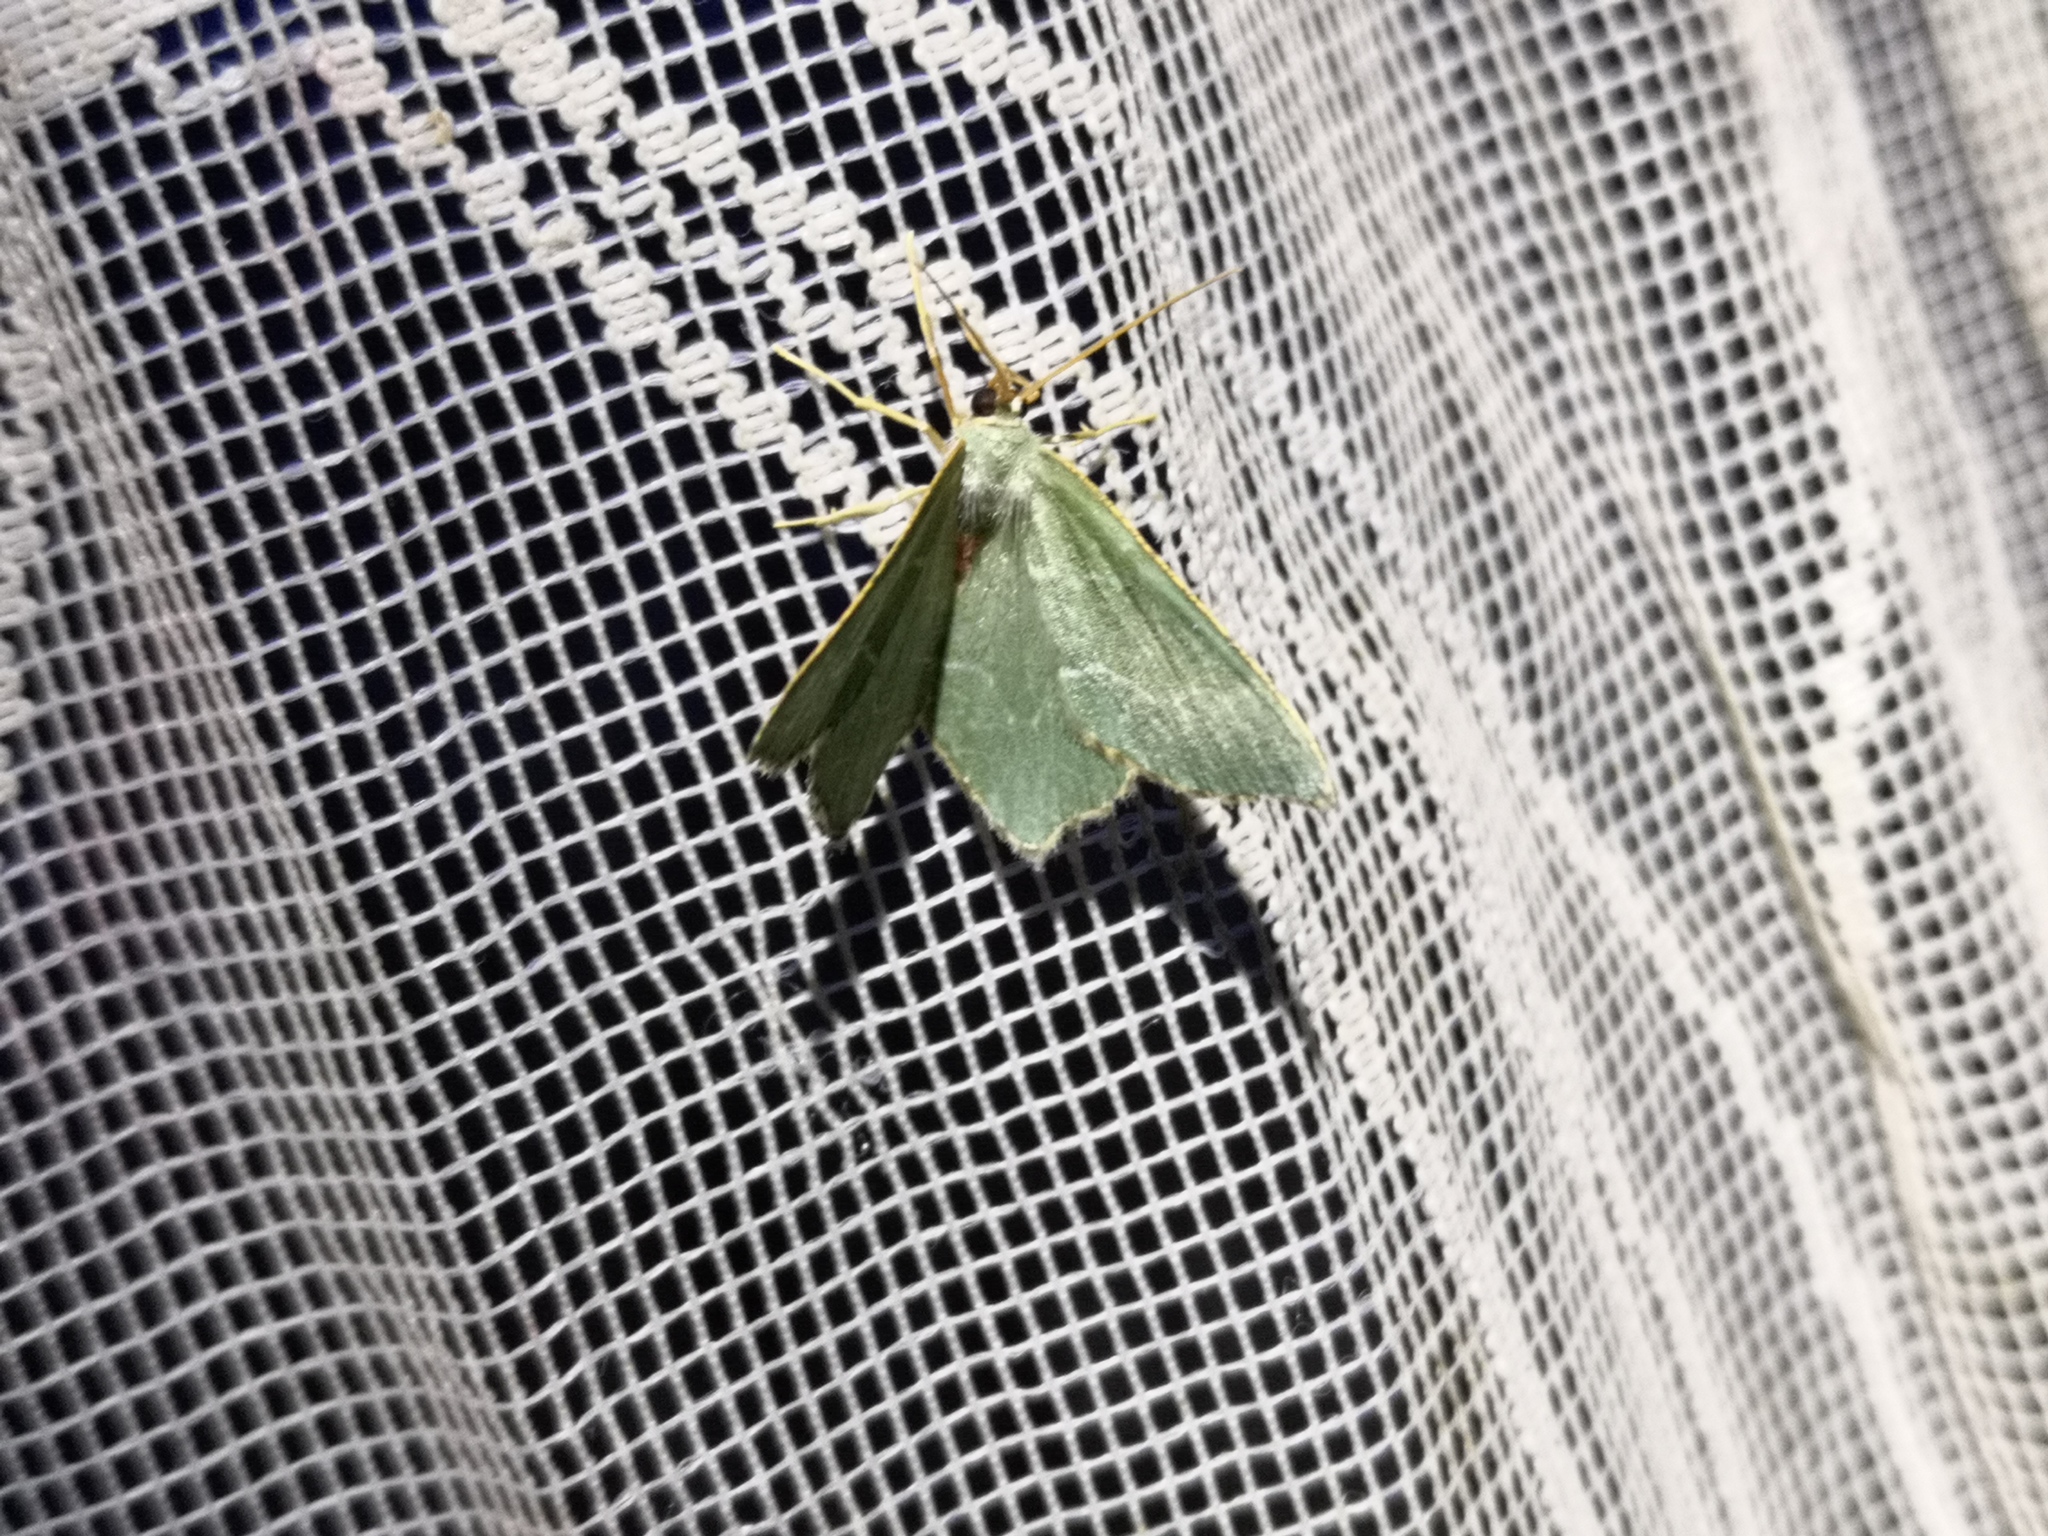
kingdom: Animalia
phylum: Arthropoda
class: Insecta
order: Lepidoptera
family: Geometridae
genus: Hemithea
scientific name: Hemithea aestivaria
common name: Common emerald
